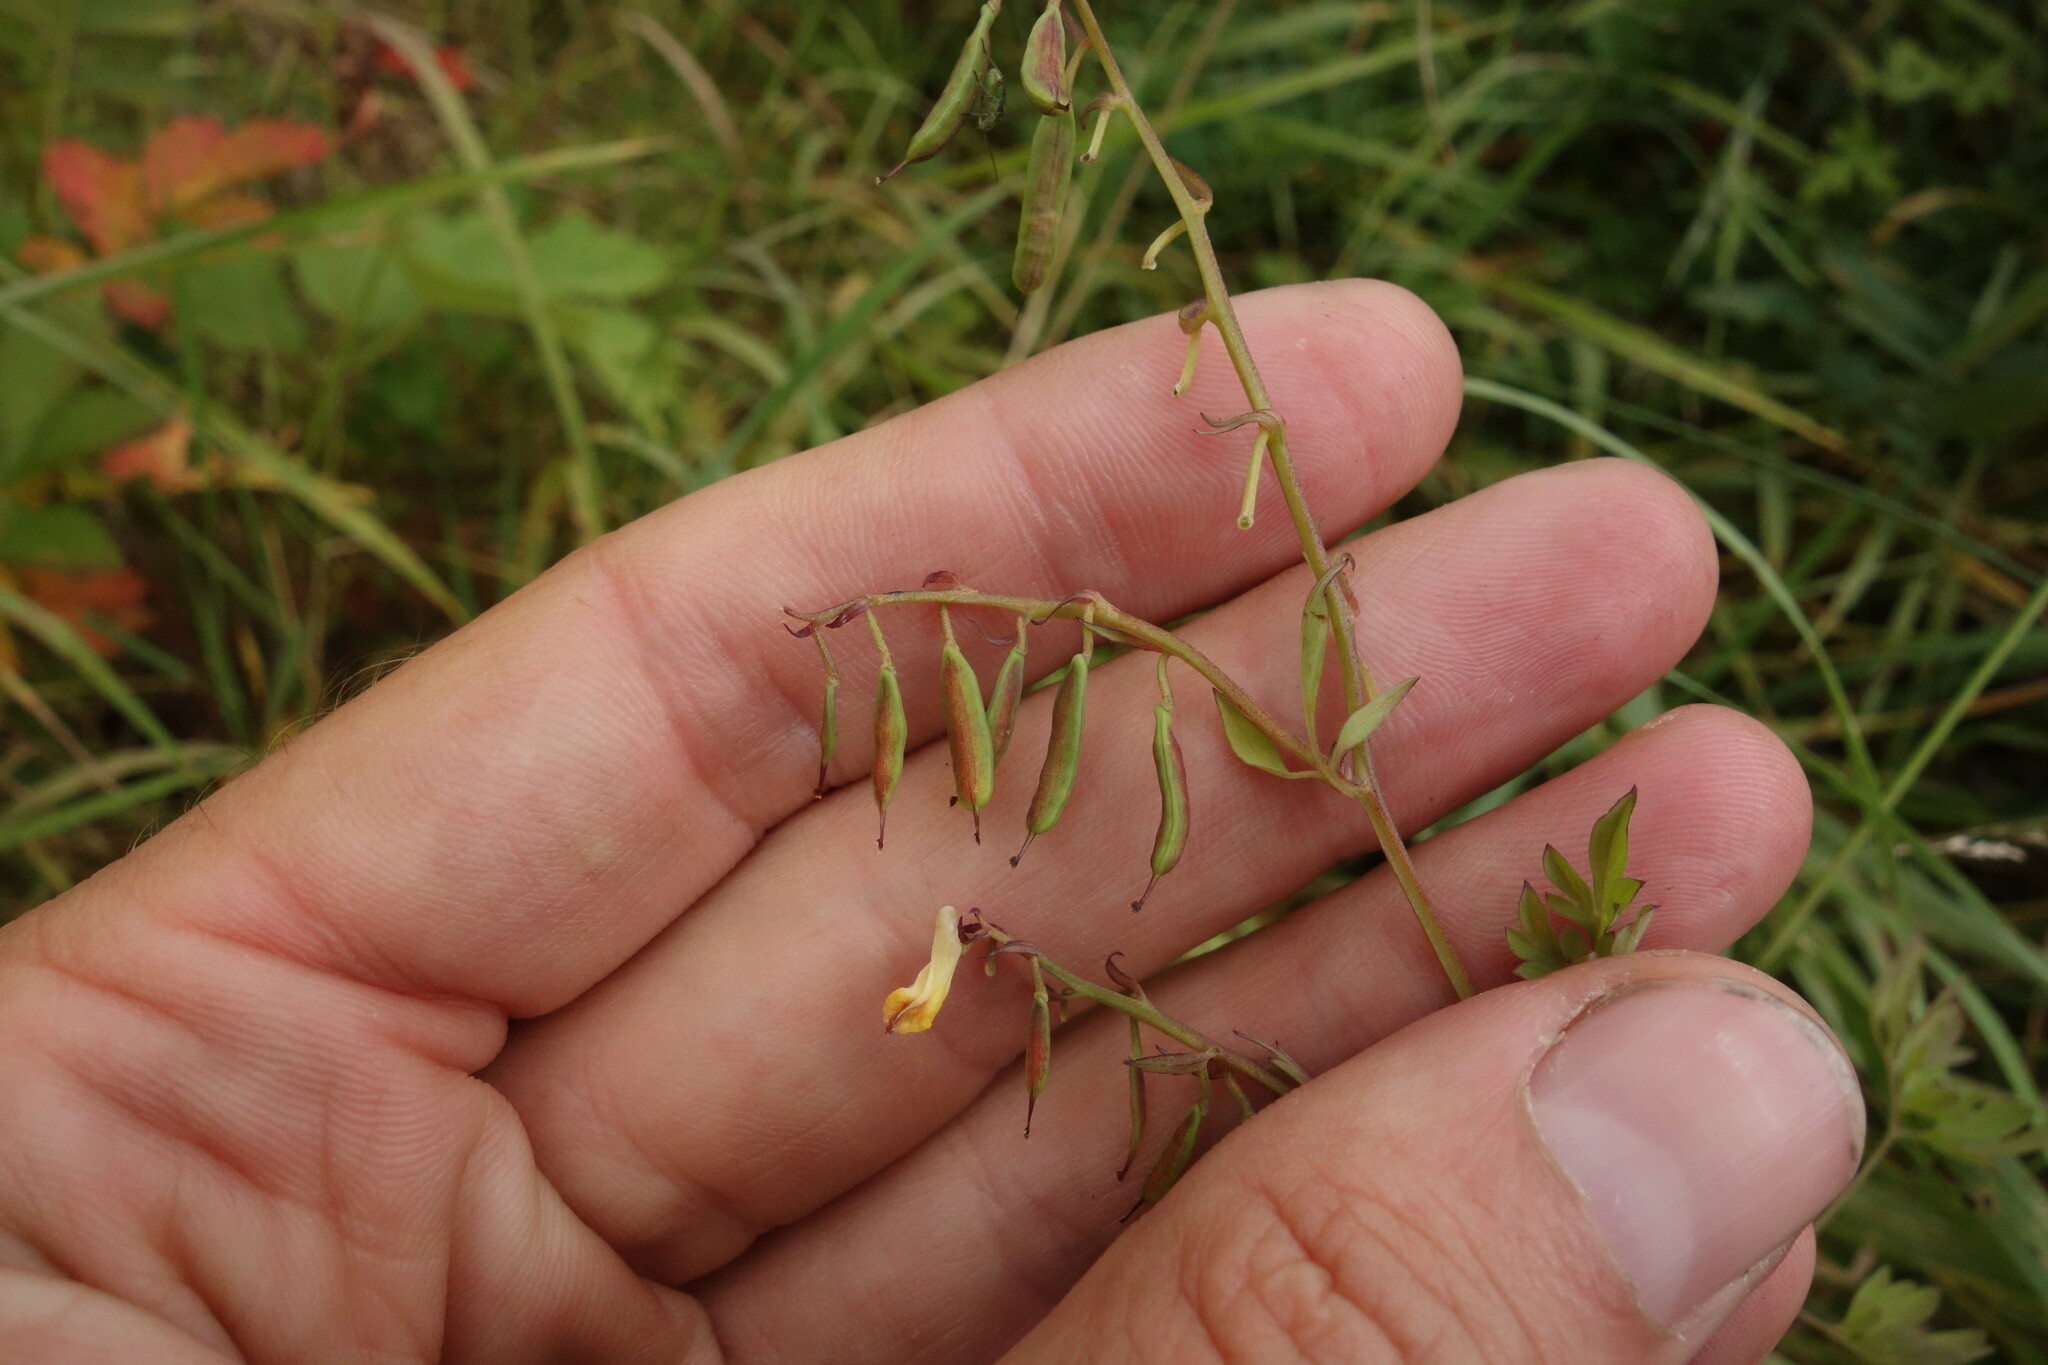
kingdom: Plantae
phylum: Tracheophyta
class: Magnoliopsida
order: Ranunculales
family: Papaveraceae
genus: Corydalis
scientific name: Corydalis impatiens
